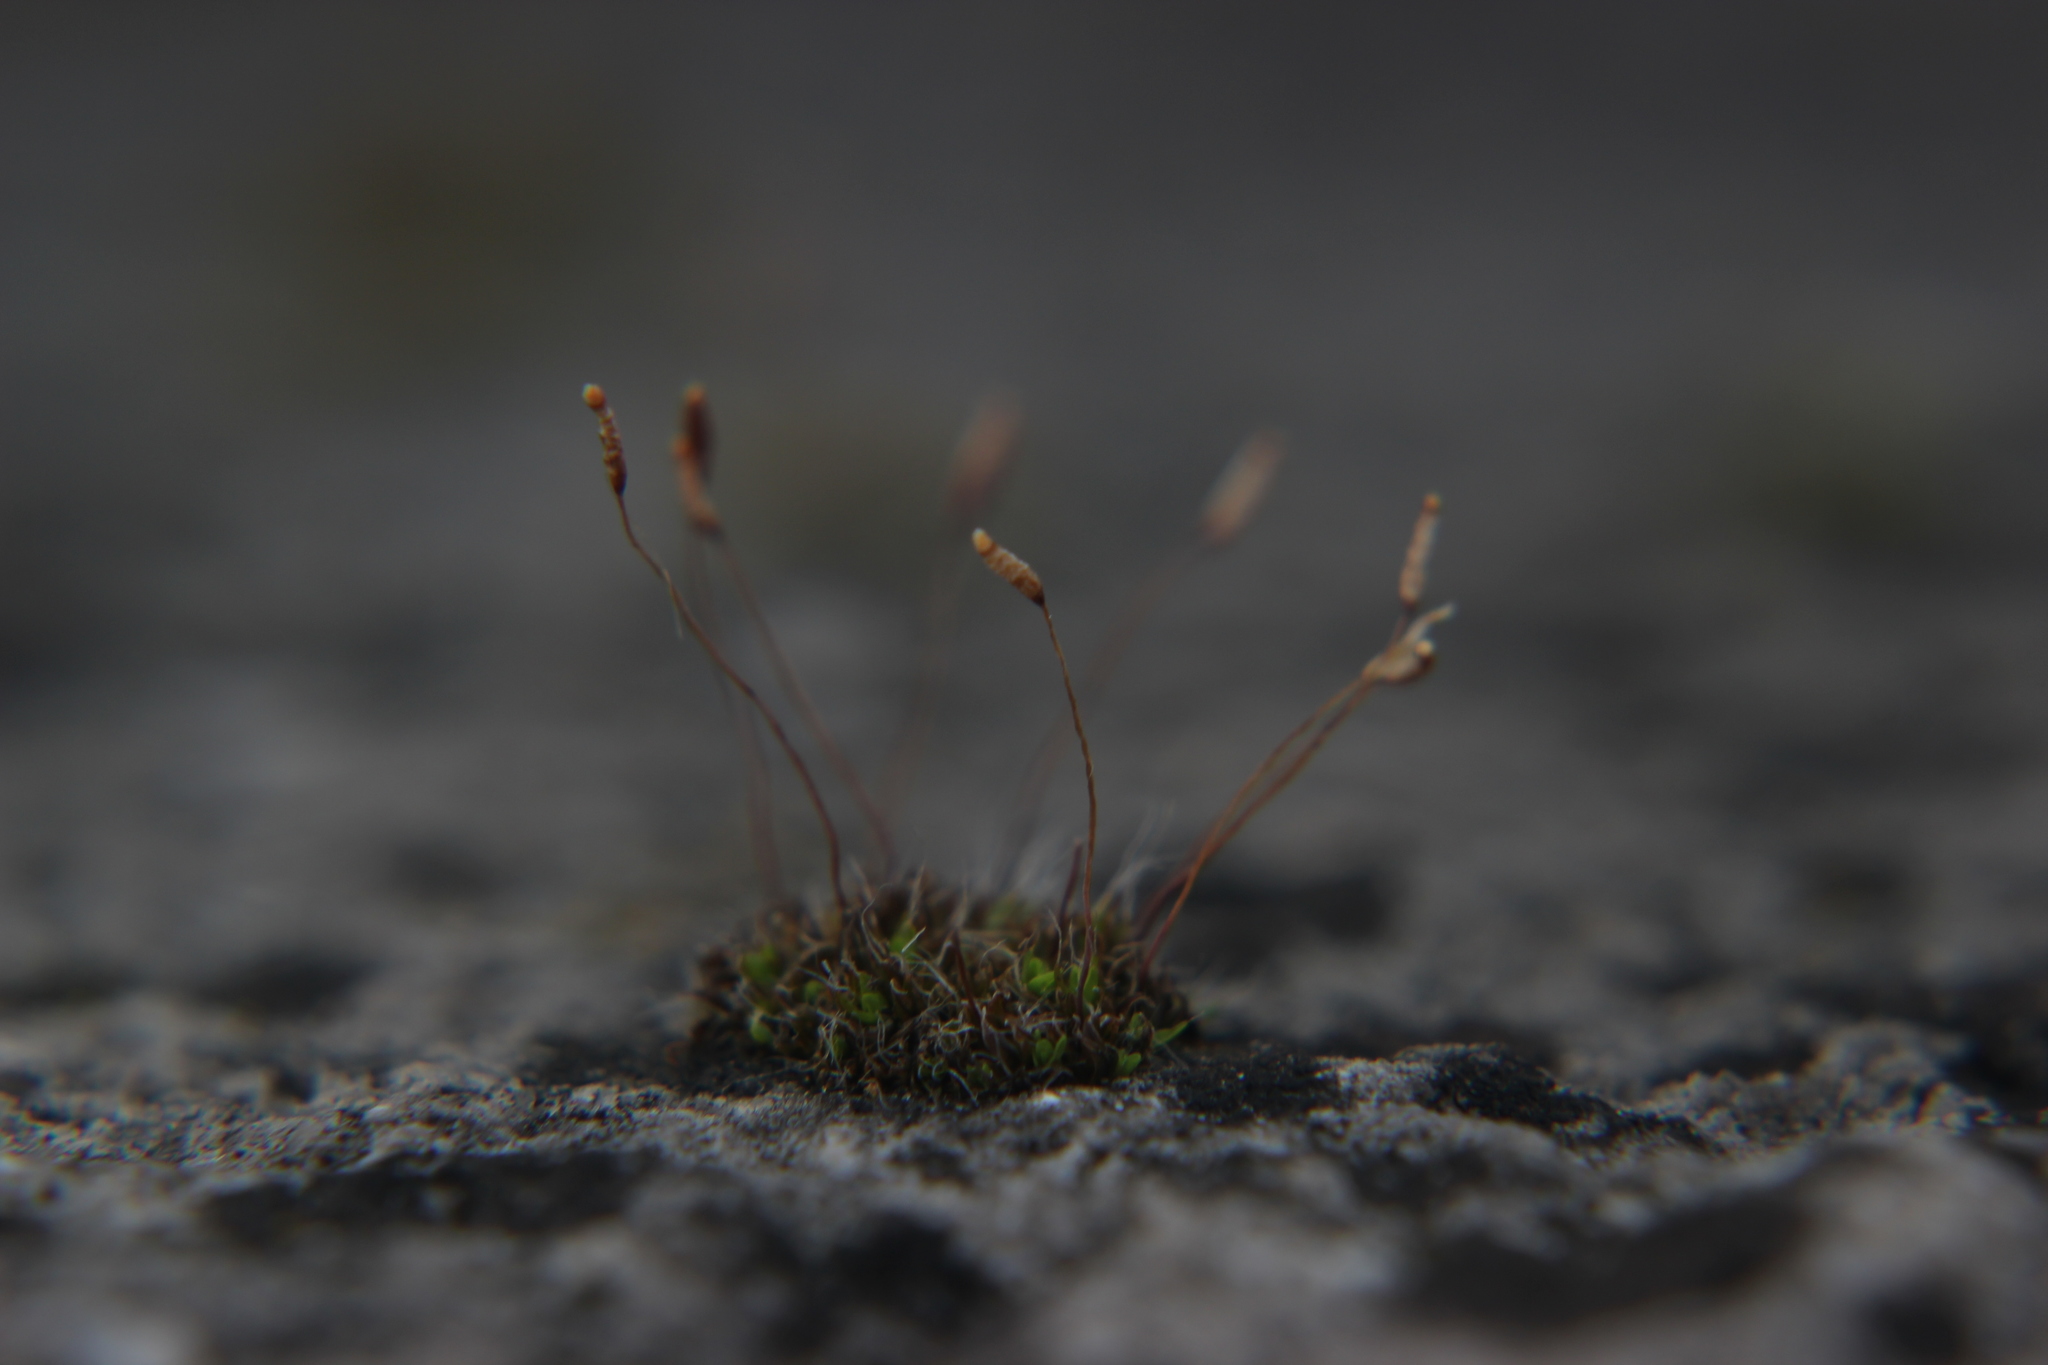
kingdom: Plantae
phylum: Bryophyta
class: Bryopsida
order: Pottiales
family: Pottiaceae
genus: Tortula
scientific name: Tortula muralis
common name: Wall screw-moss
